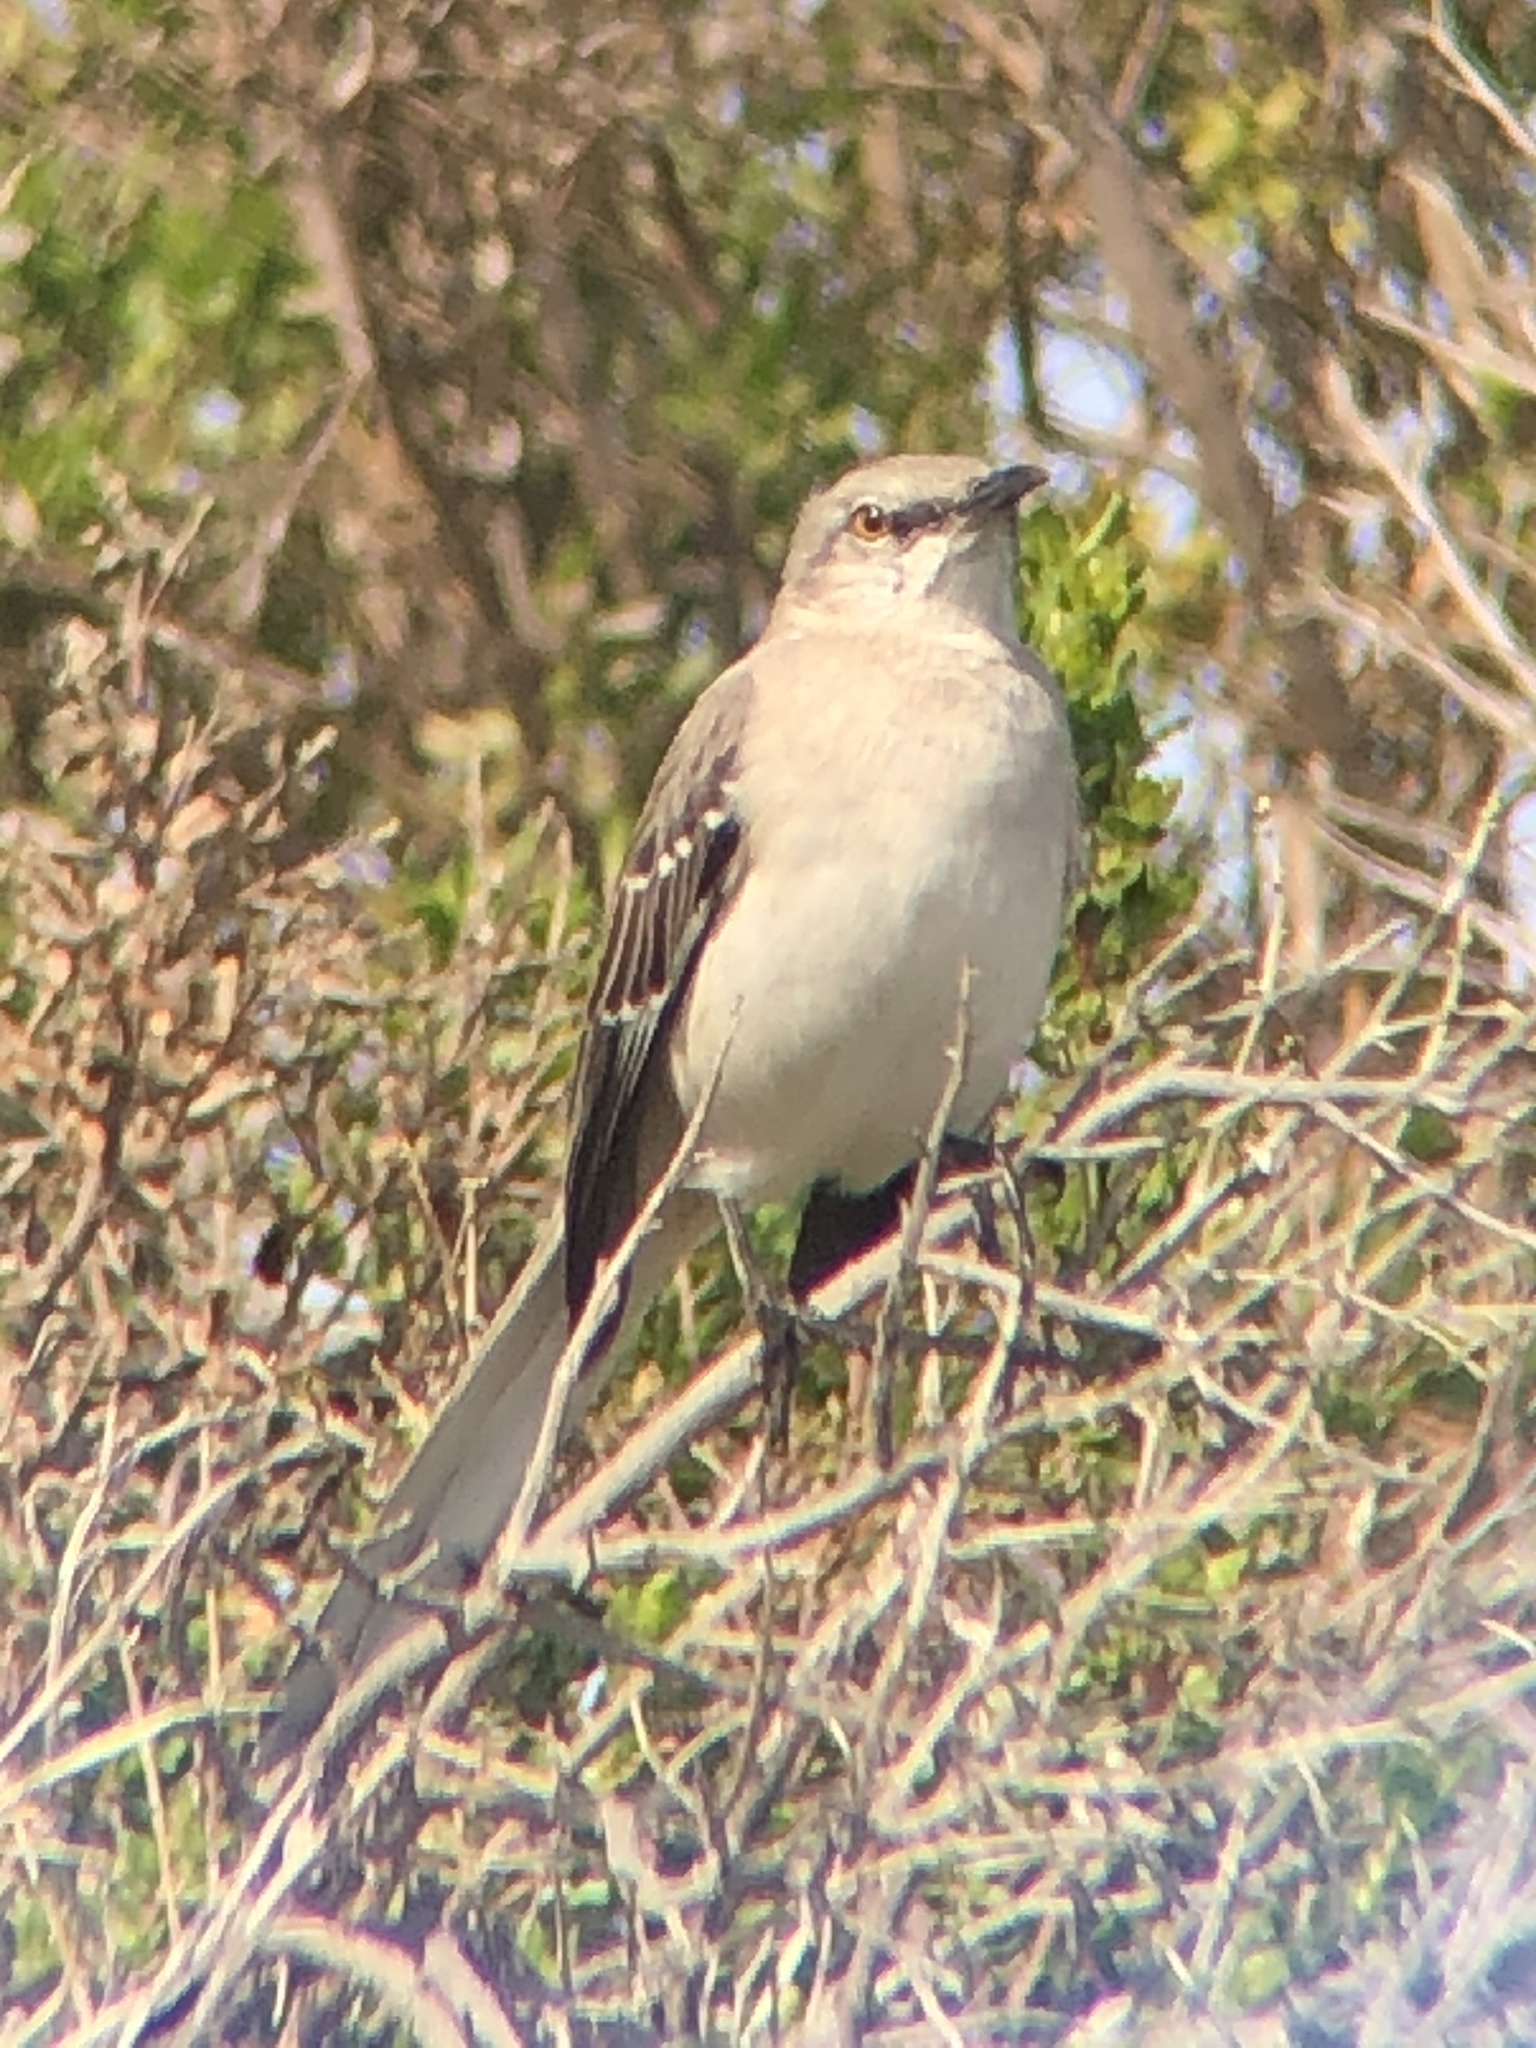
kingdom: Animalia
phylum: Chordata
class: Aves
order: Passeriformes
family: Mimidae
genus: Mimus
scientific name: Mimus polyglottos
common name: Northern mockingbird
